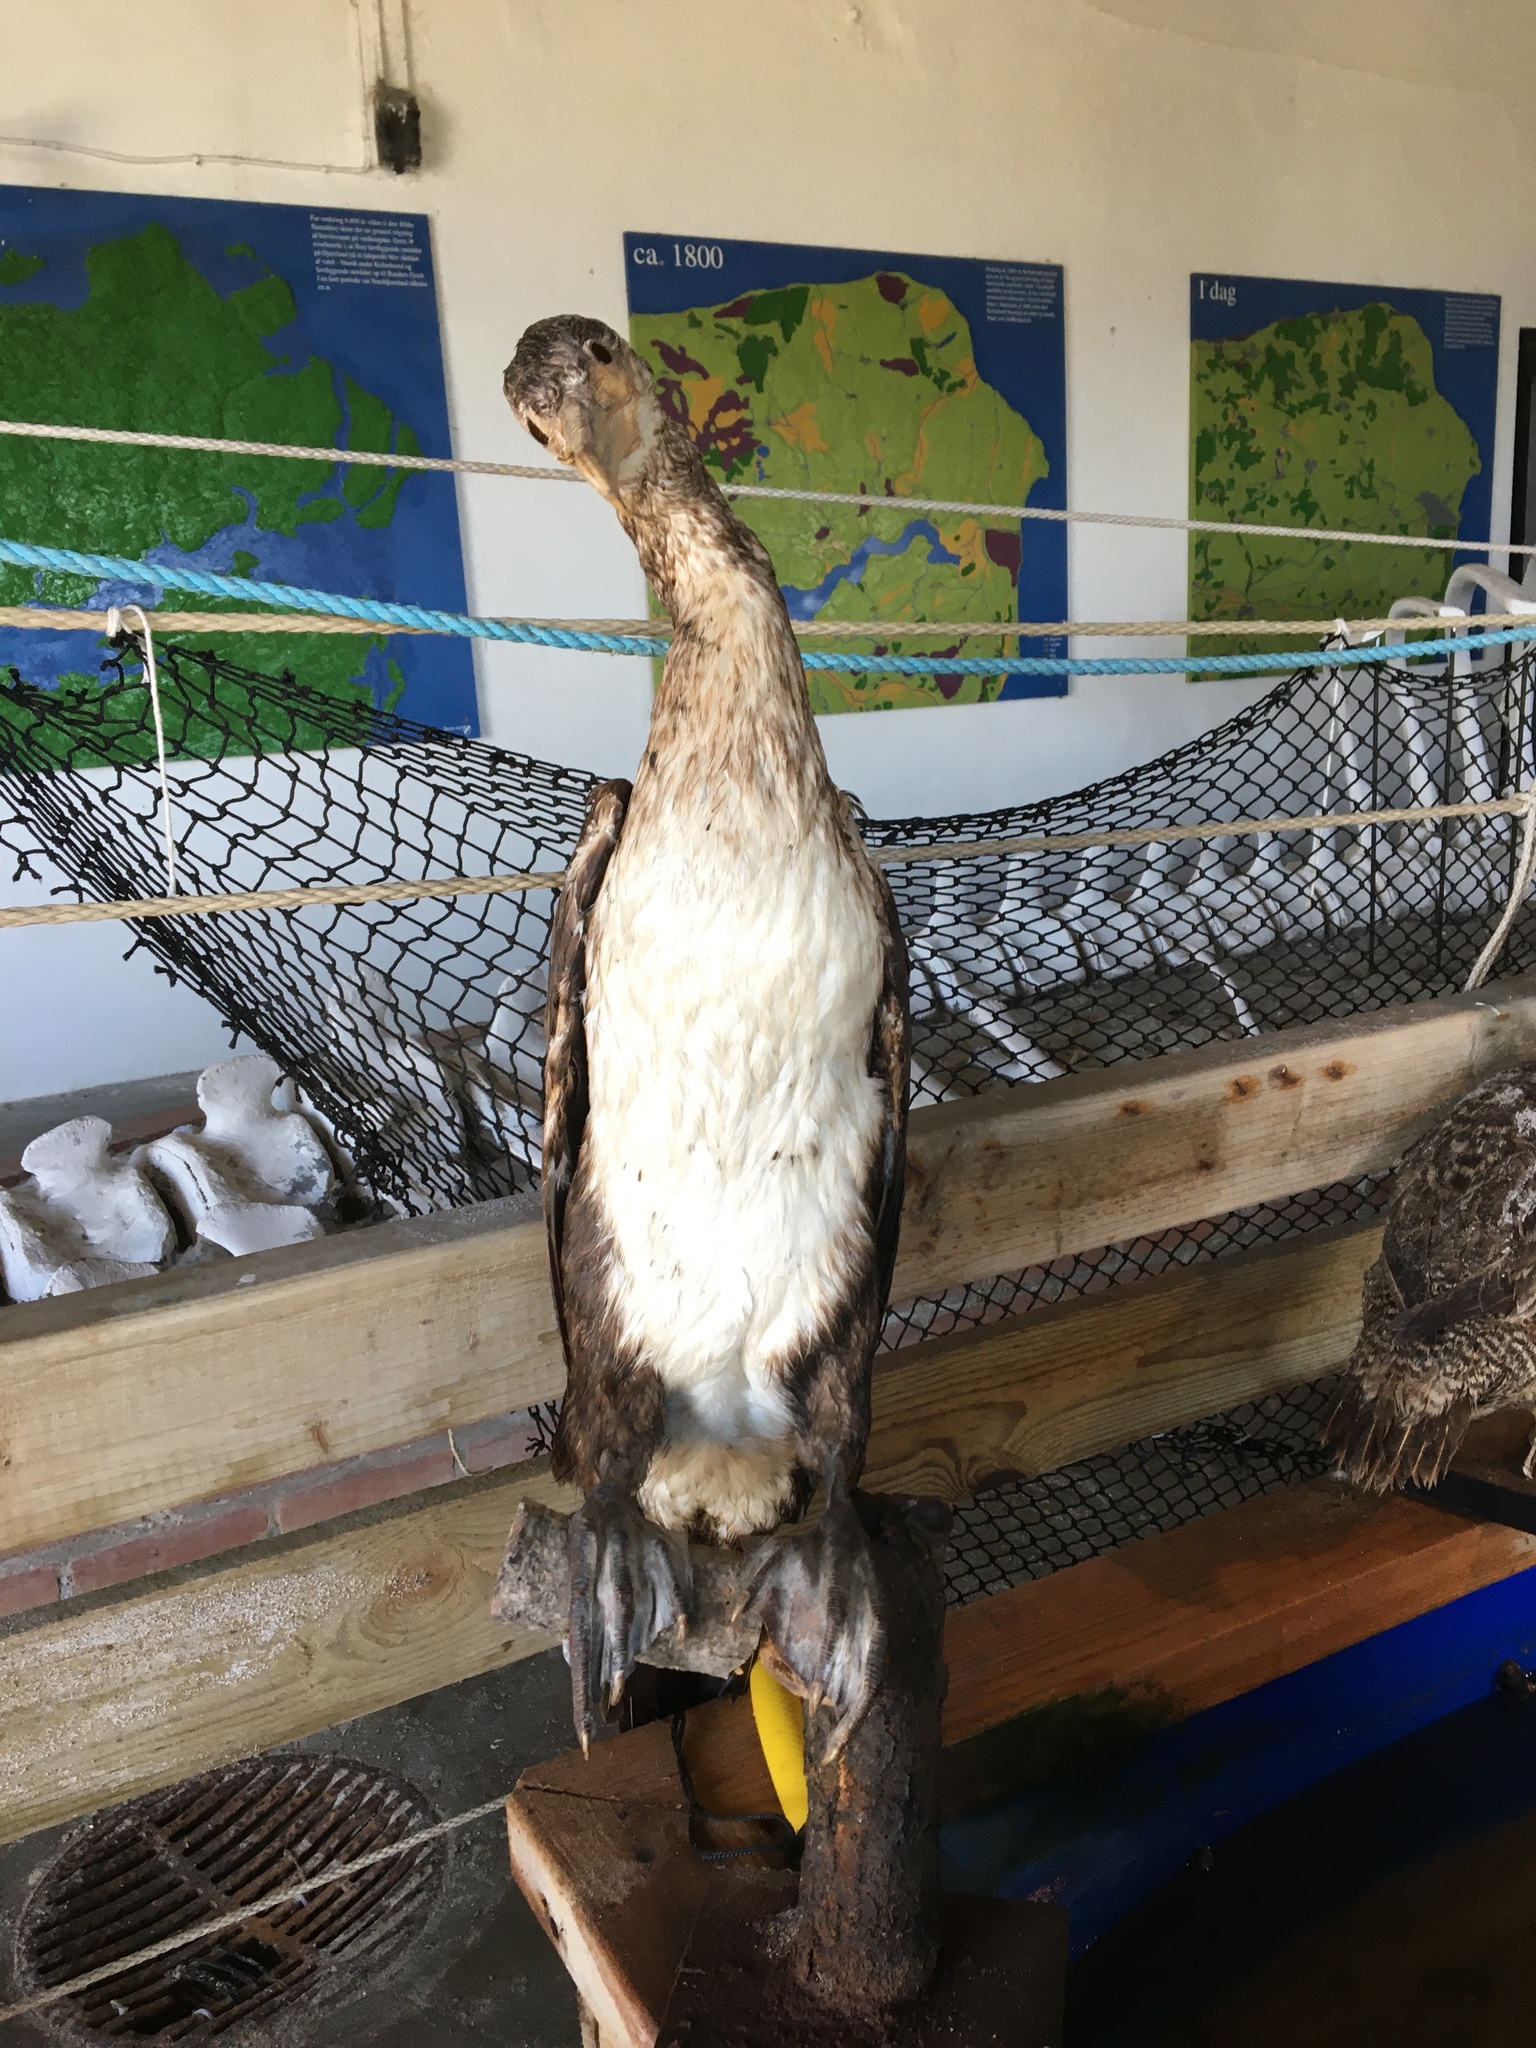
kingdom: Animalia
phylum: Chordata
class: Aves
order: Suliformes
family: Phalacrocoracidae
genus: Phalacrocorax
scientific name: Phalacrocorax carbo
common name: Great cormorant
